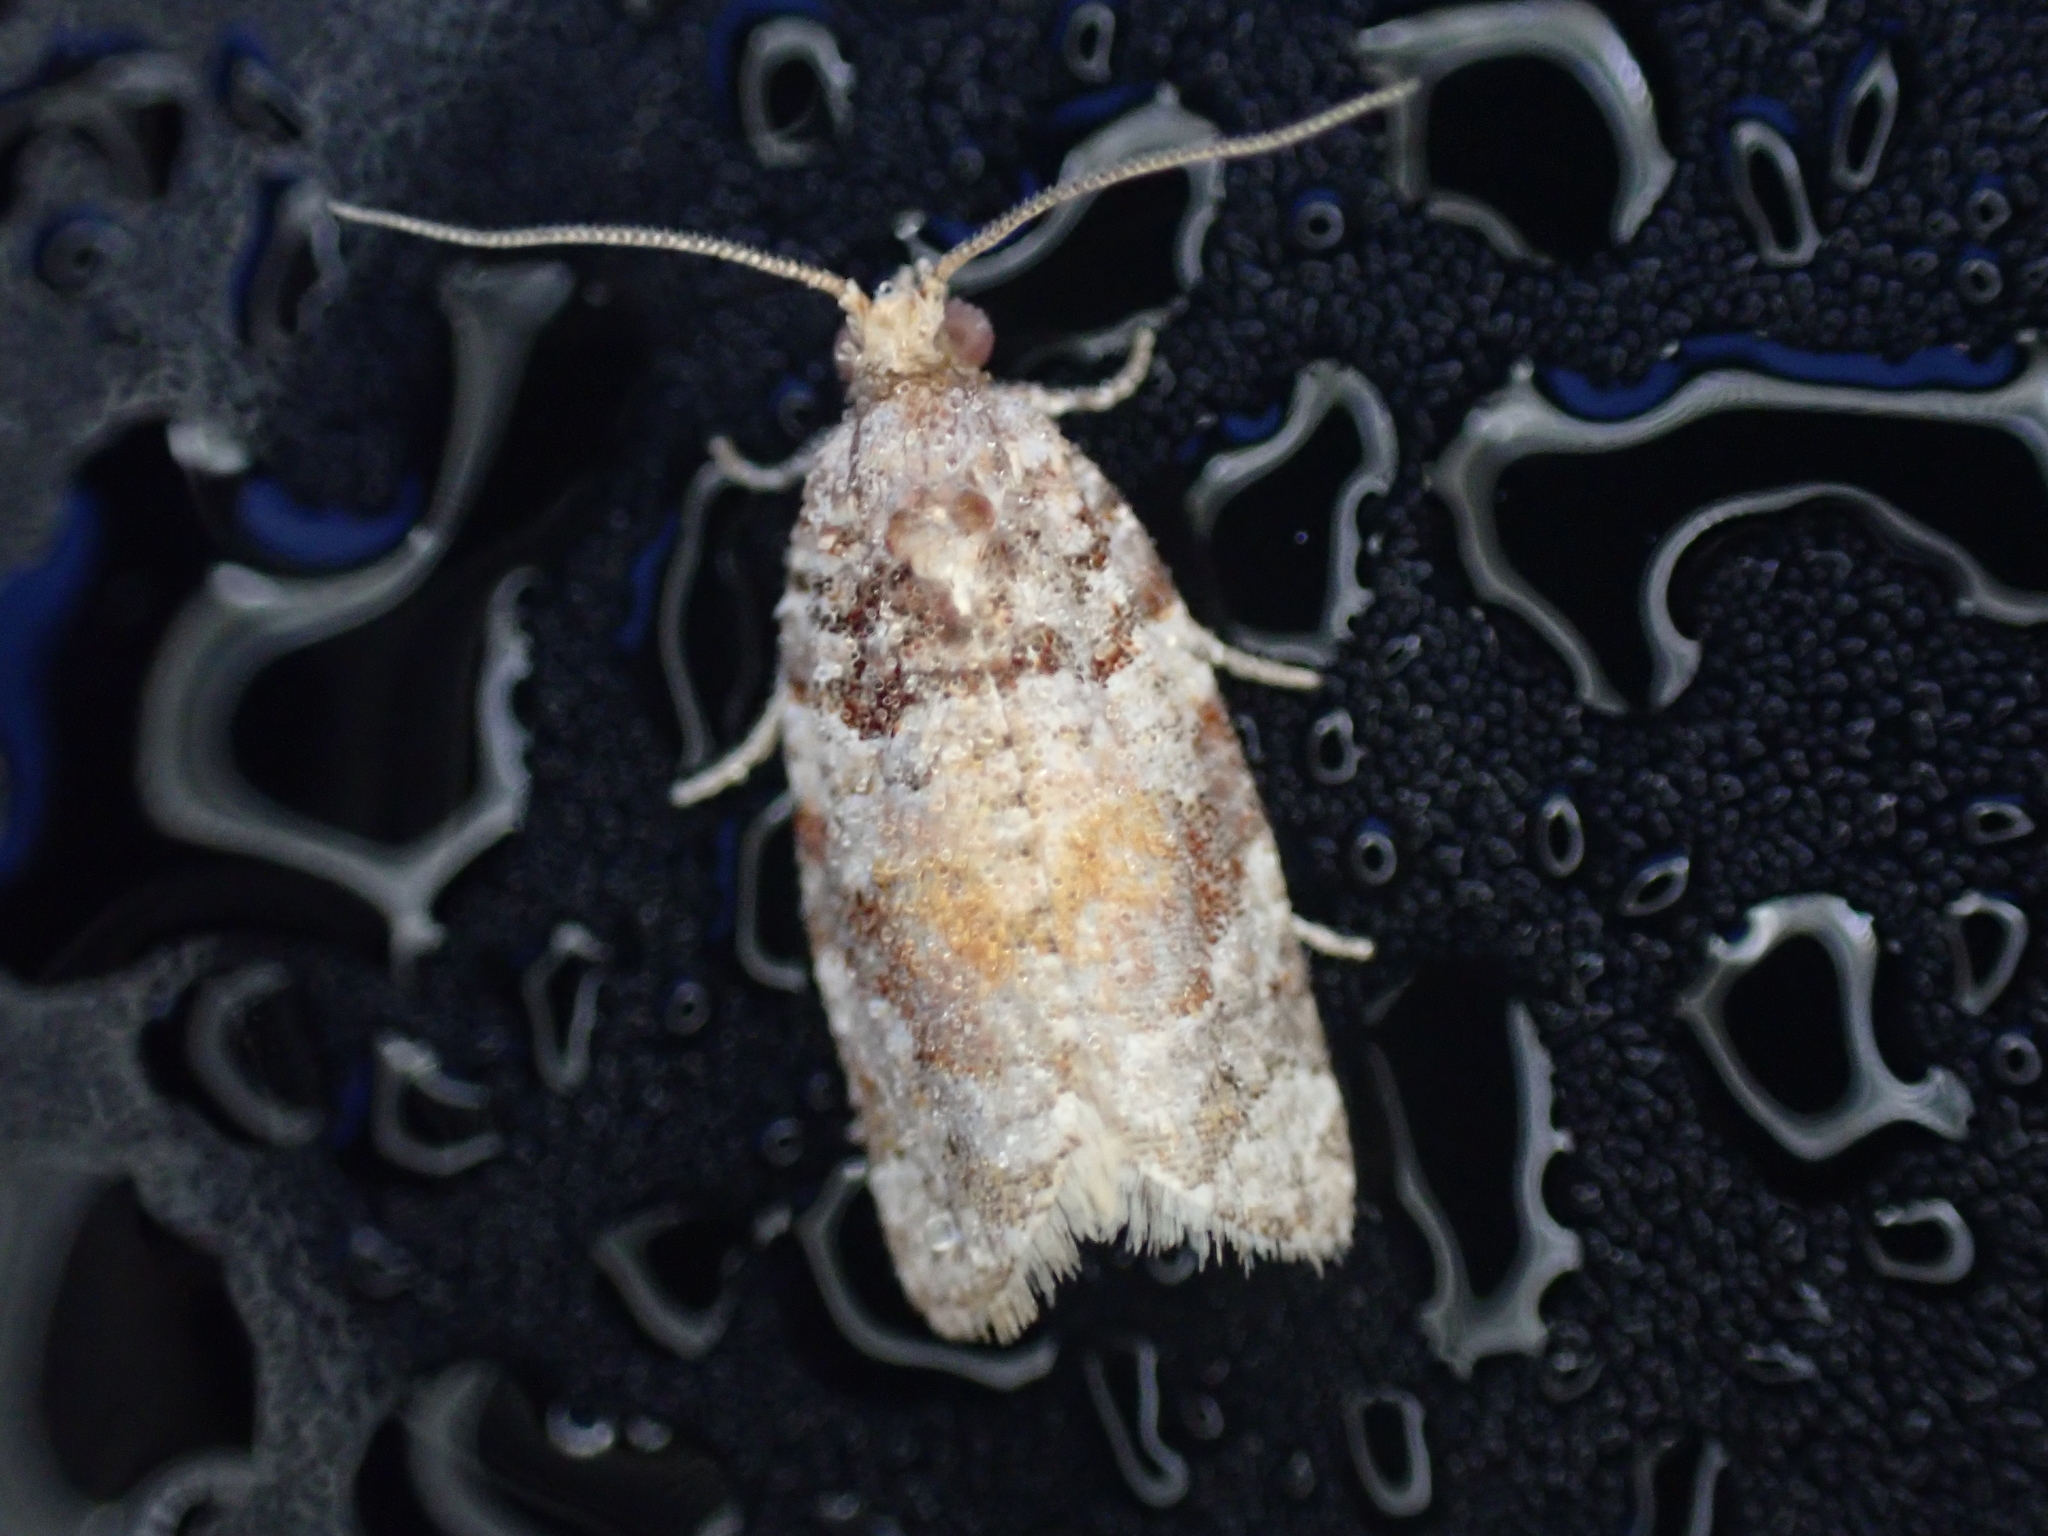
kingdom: Animalia
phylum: Arthropoda
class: Insecta
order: Lepidoptera
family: Tortricidae
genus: Argyrotaenia
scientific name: Argyrotaenia kimballi
